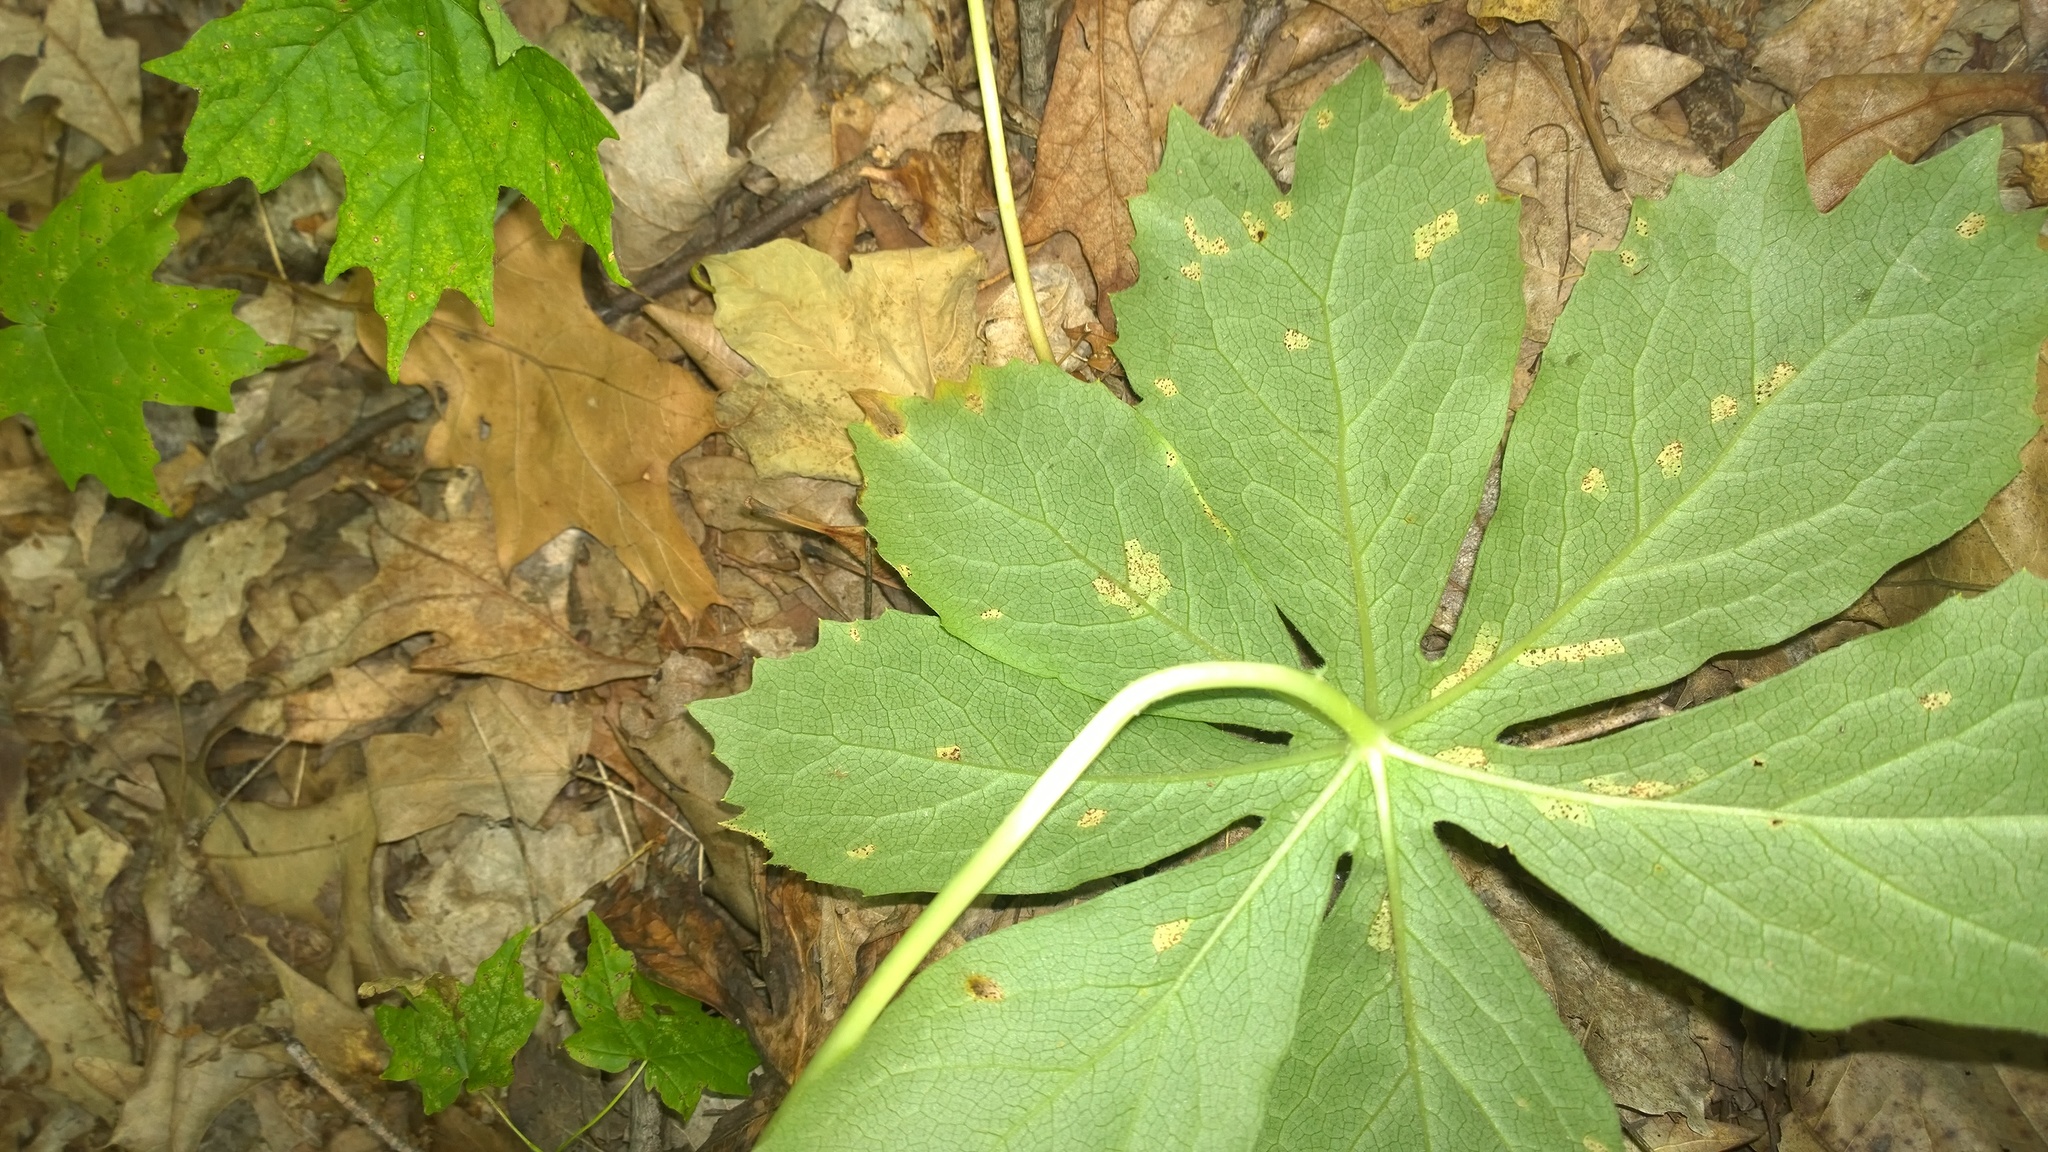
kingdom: Fungi
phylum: Basidiomycota
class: Pucciniomycetes
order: Pucciniales
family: Pucciniaceae
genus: Puccinia
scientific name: Puccinia podophylli
